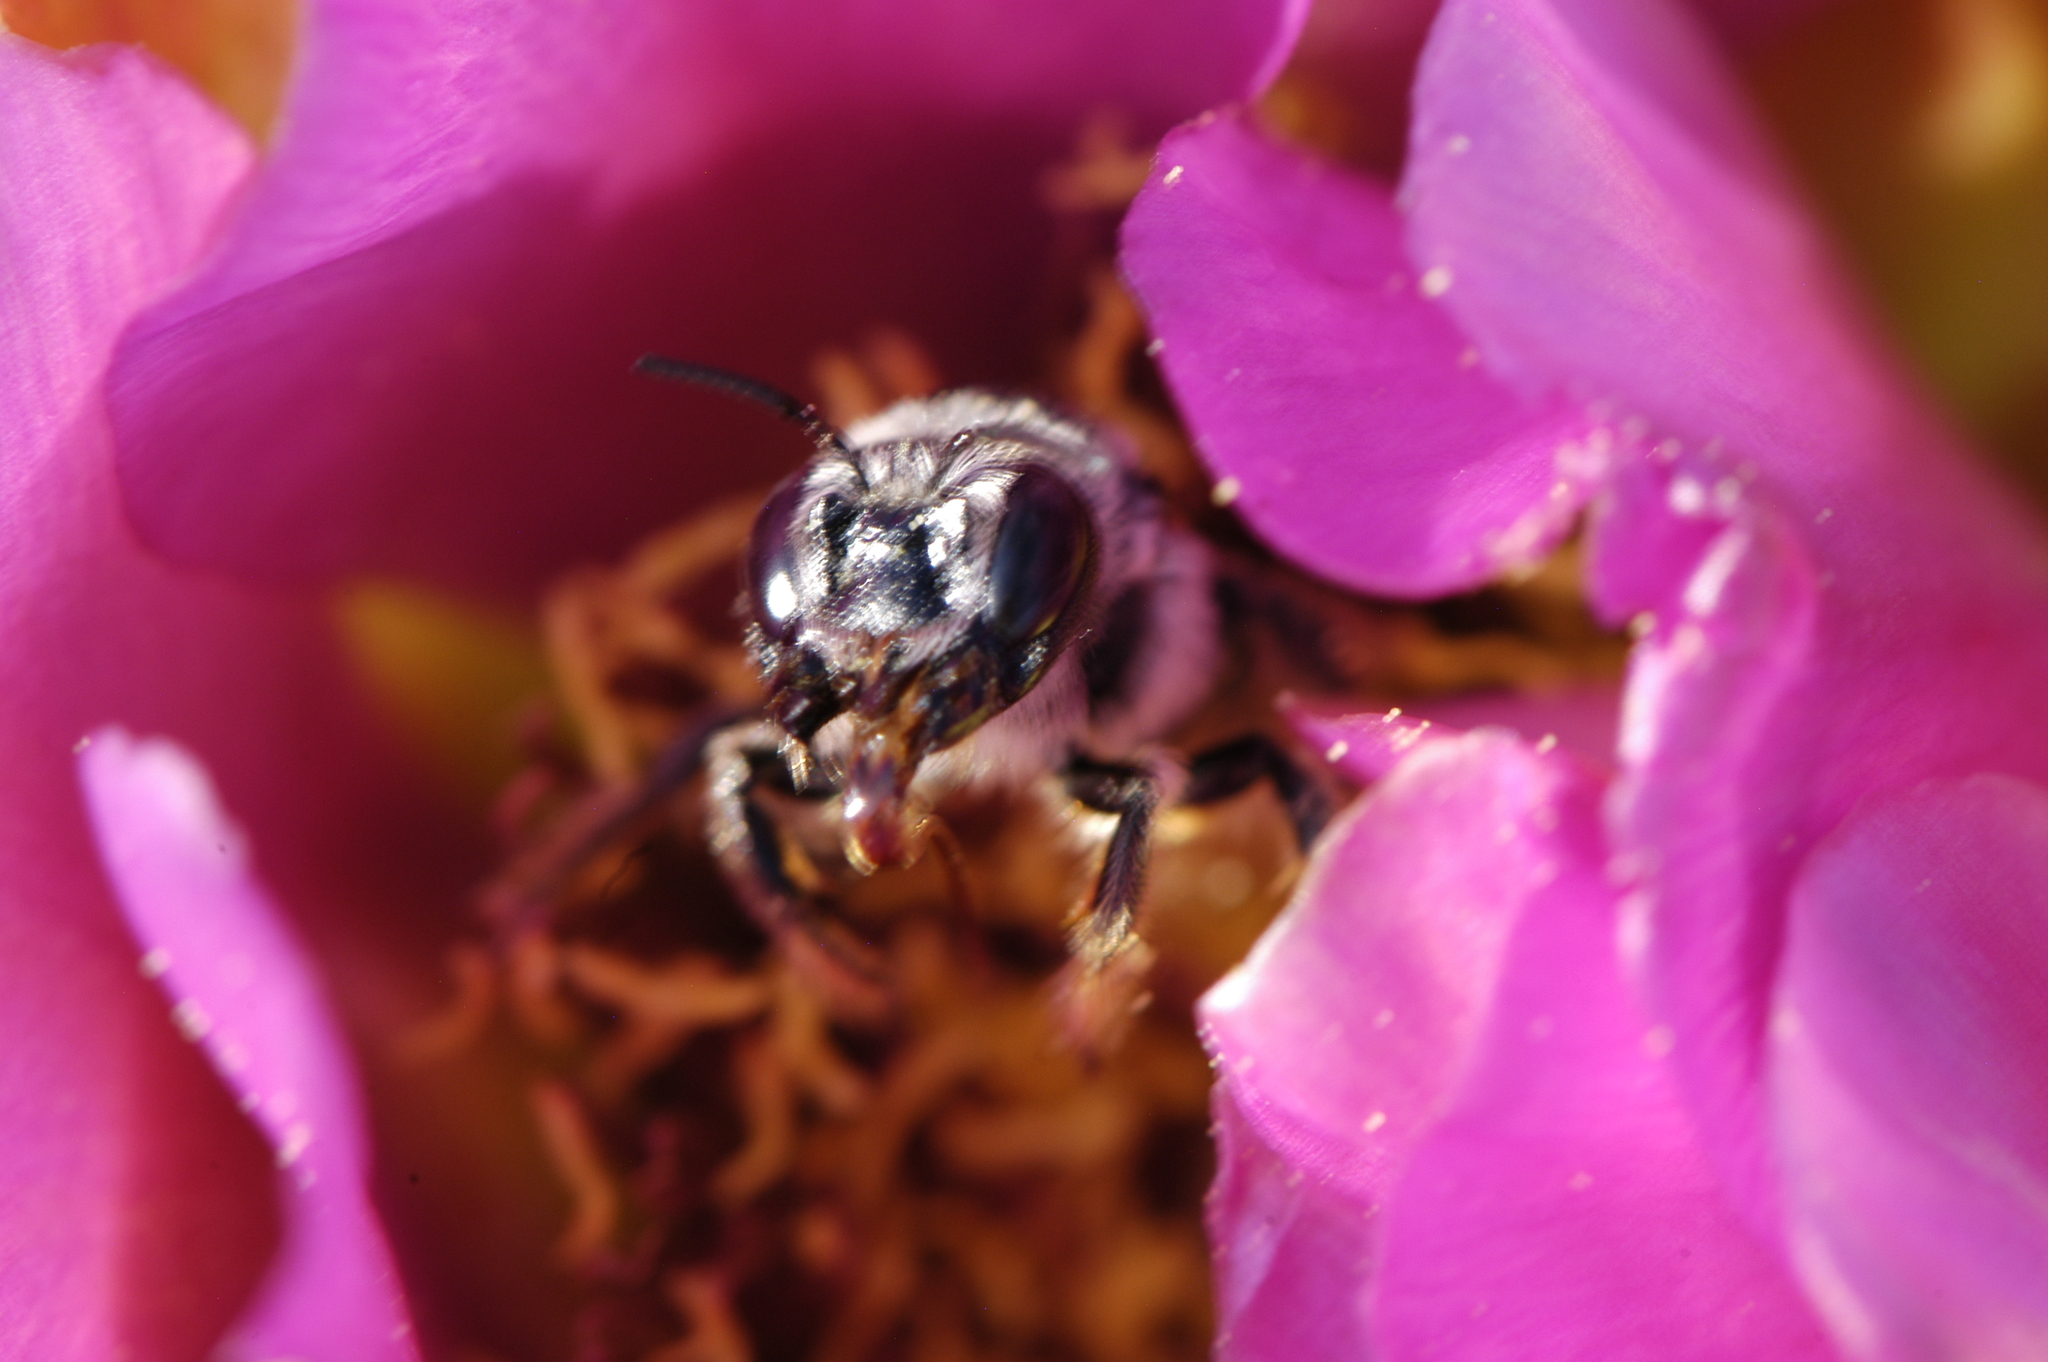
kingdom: Animalia
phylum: Arthropoda
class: Insecta
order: Hymenoptera
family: Megachilidae
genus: Lithurgopsis
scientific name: Lithurgopsis apicalis
